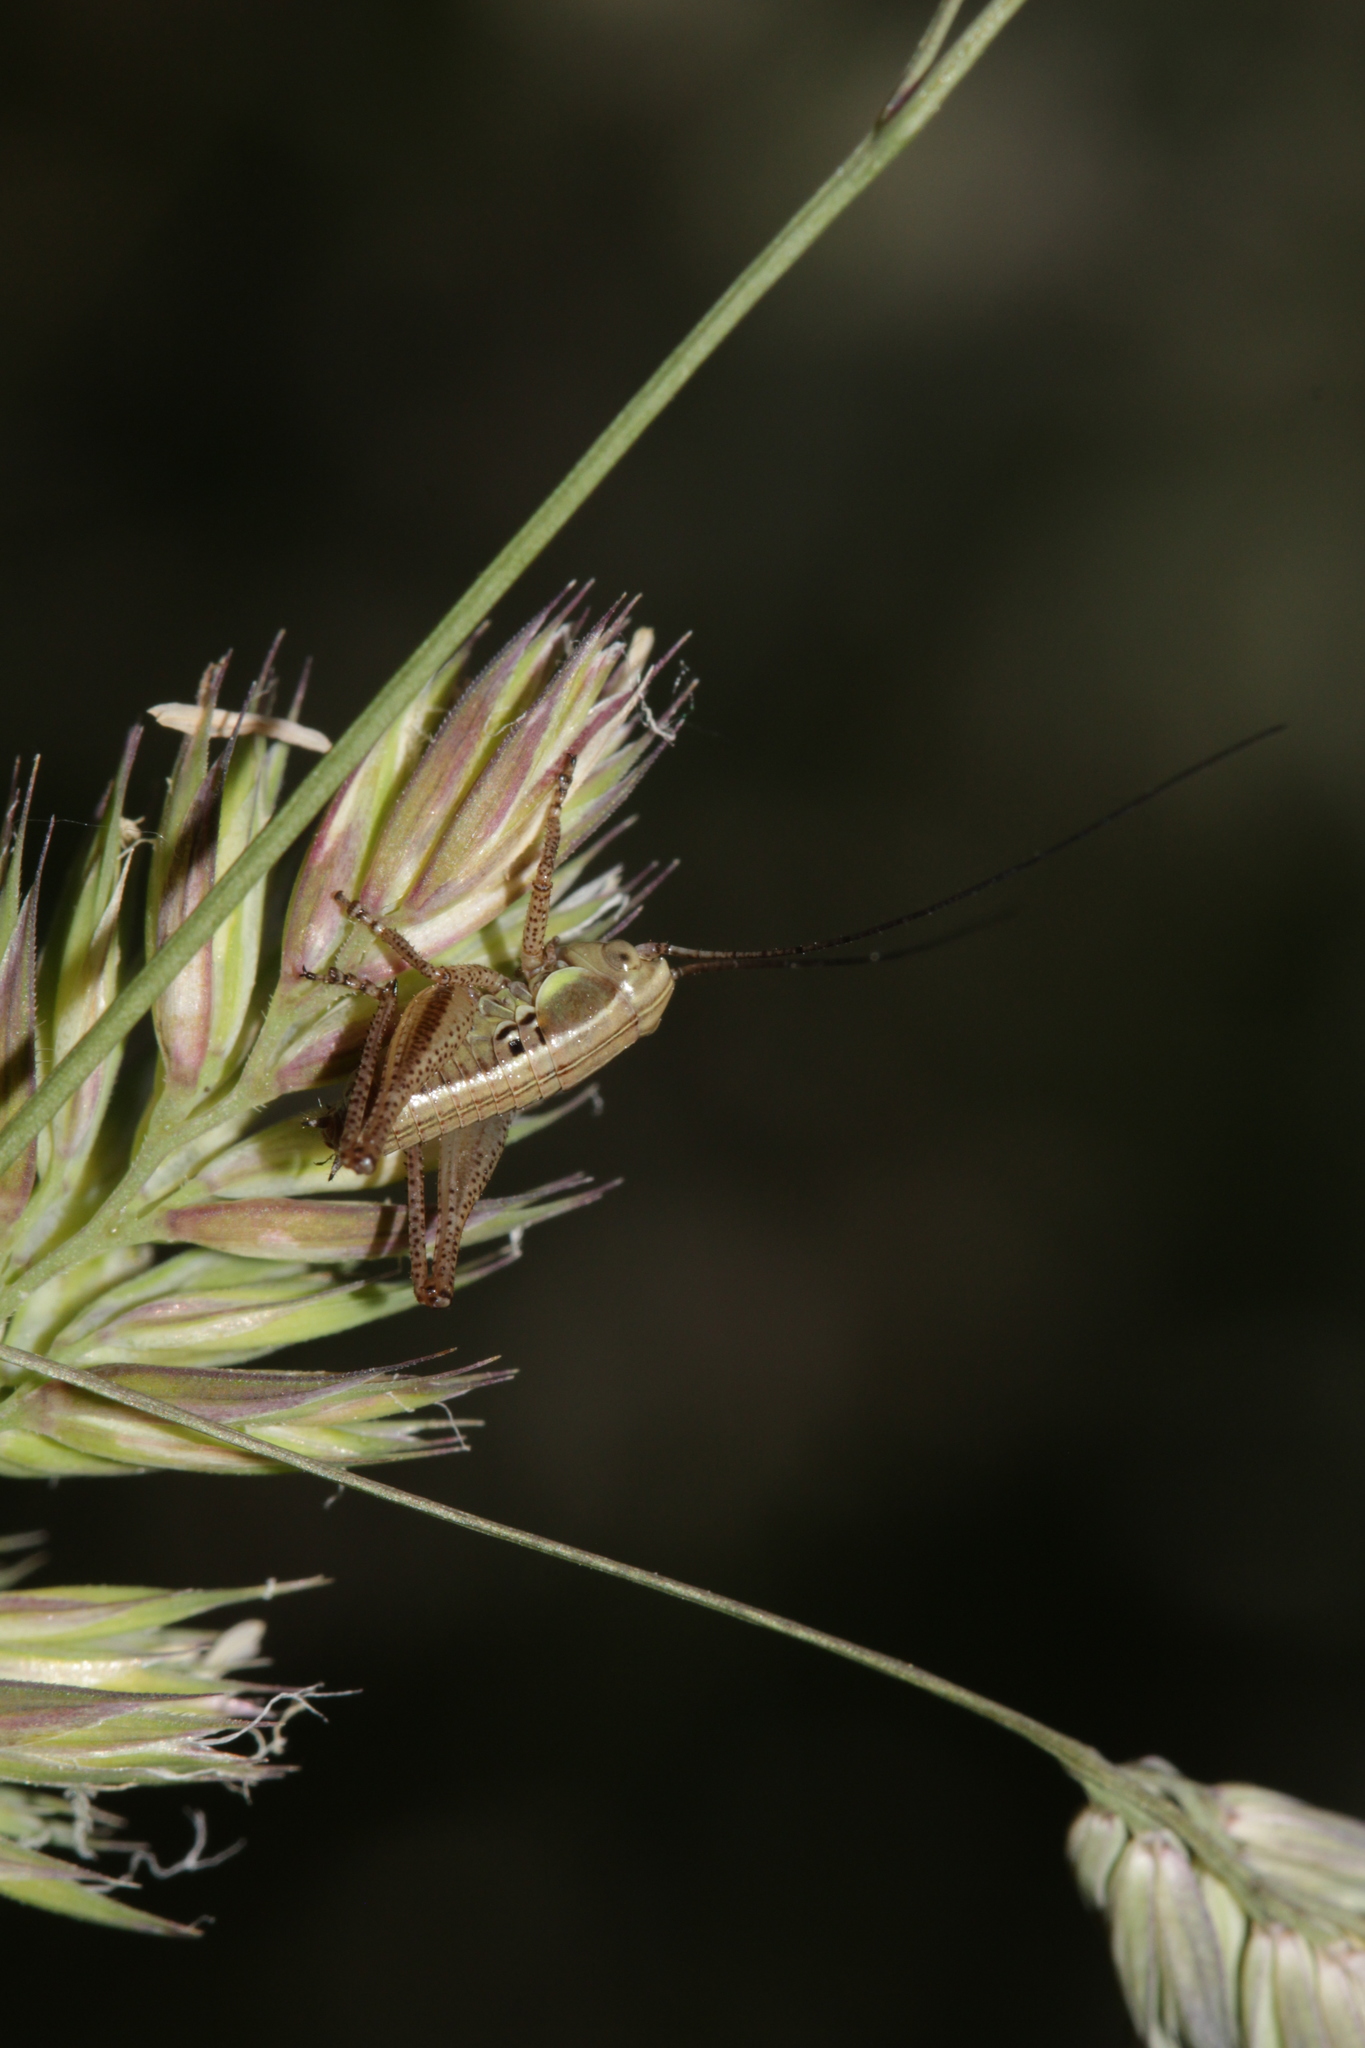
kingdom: Animalia
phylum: Arthropoda
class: Insecta
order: Orthoptera
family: Tettigoniidae
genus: Roeseliana
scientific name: Roeseliana roeselii
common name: Roesel's bush cricket
